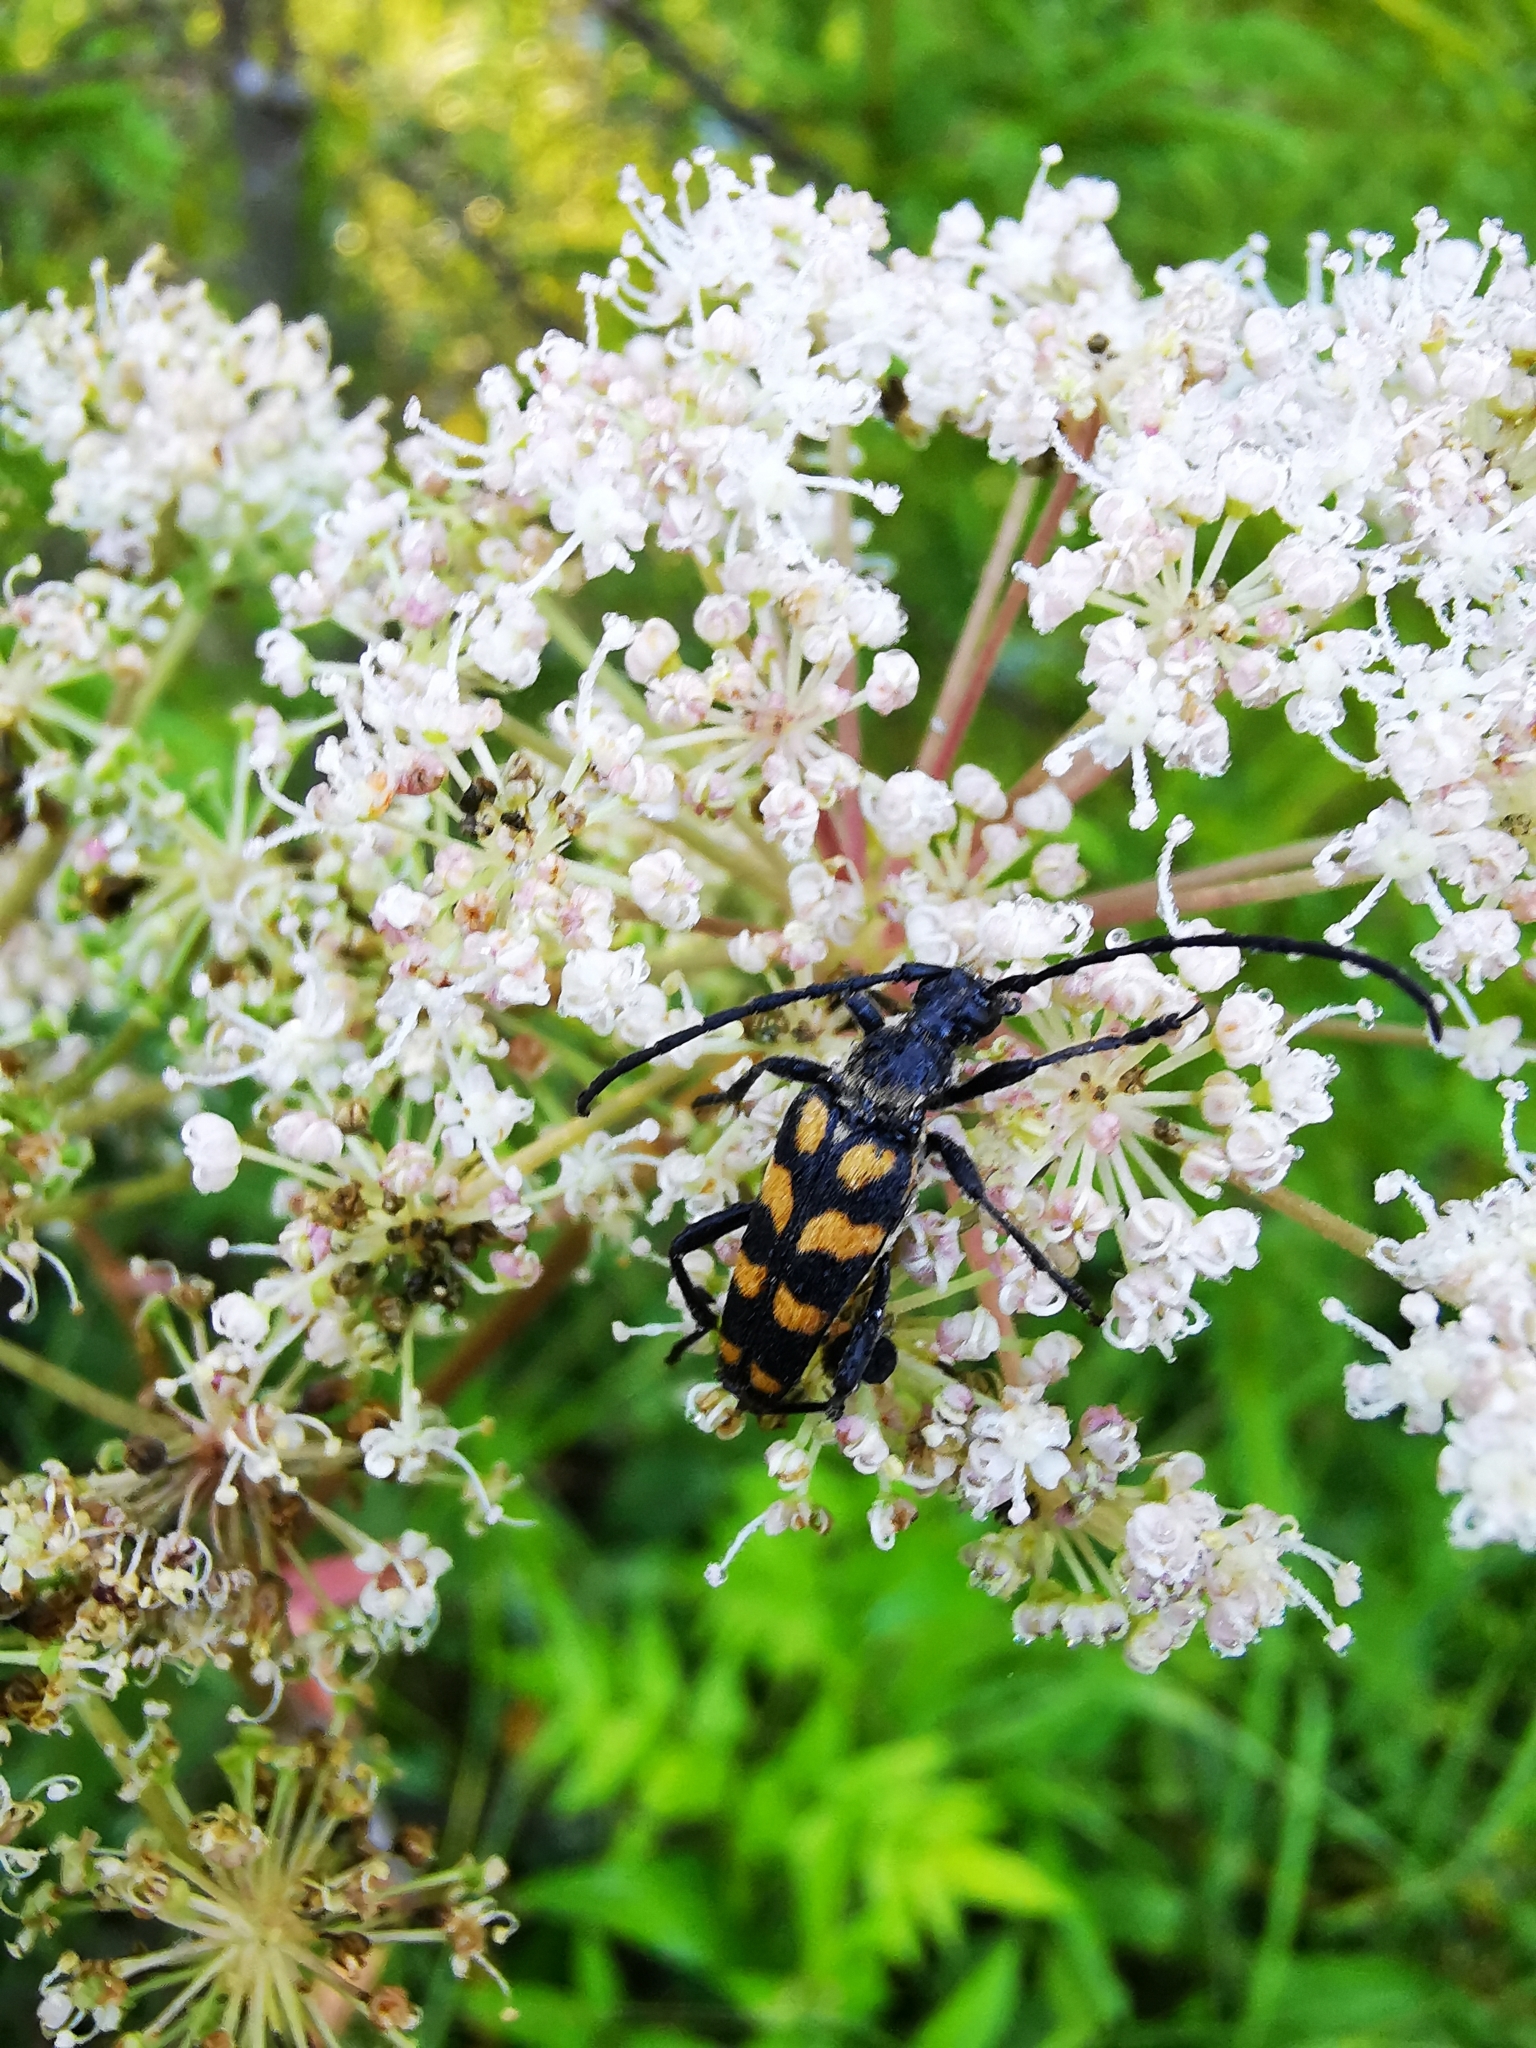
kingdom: Animalia
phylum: Arthropoda
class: Insecta
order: Coleoptera
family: Cerambycidae
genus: Leptura
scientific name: Leptura quadrifasciata
